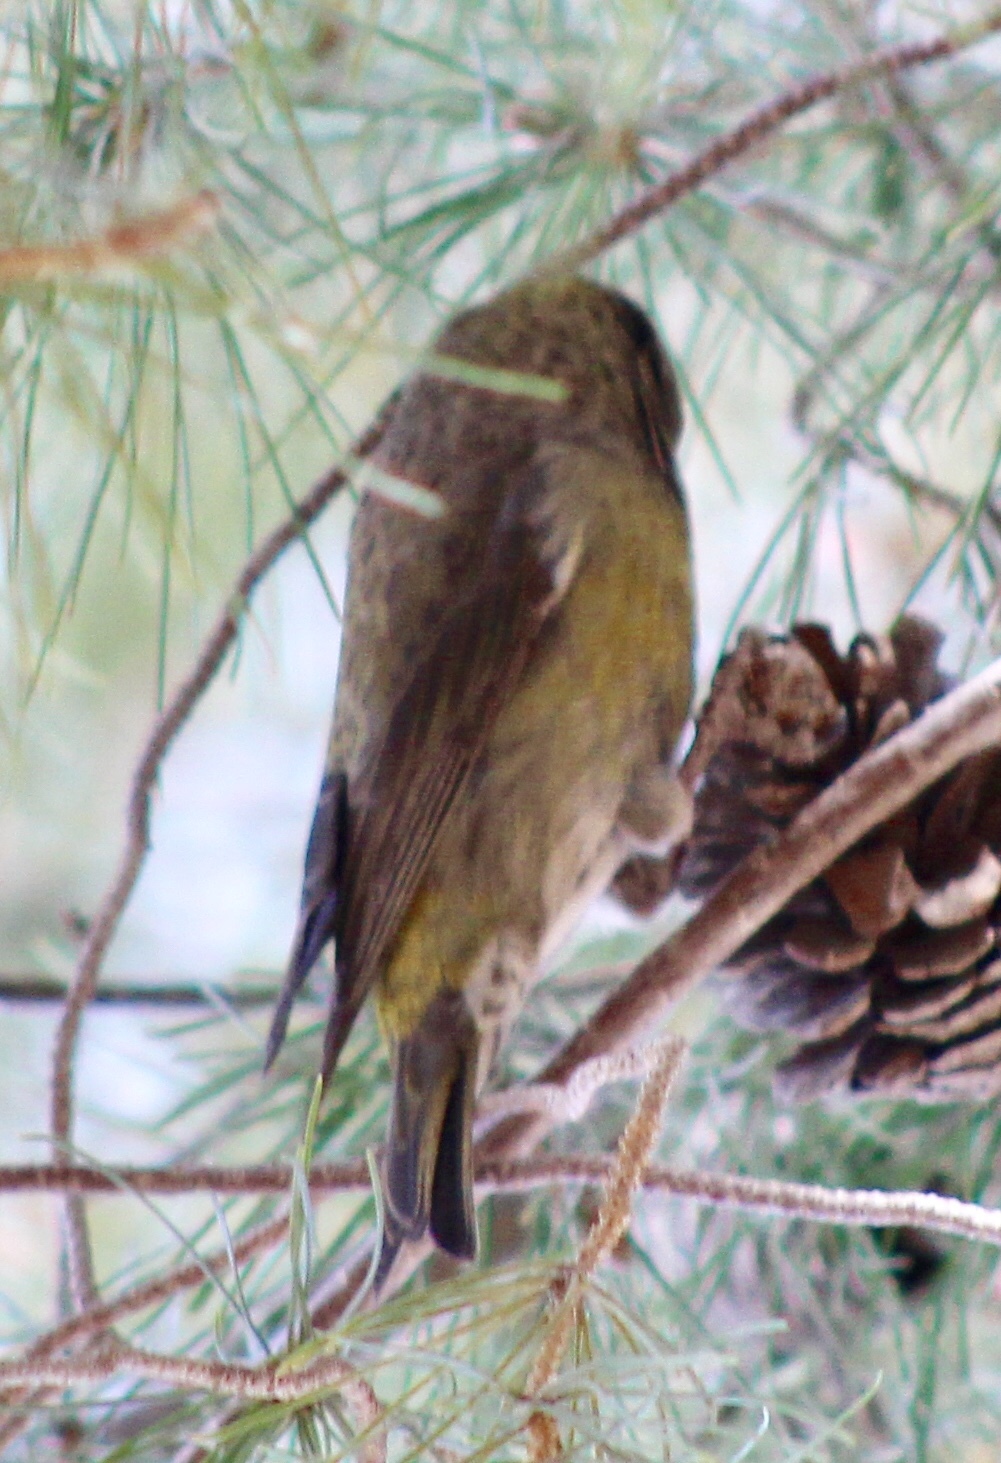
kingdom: Animalia
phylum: Chordata
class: Aves
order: Passeriformes
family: Fringillidae
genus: Loxia
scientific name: Loxia curvirostra
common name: Red crossbill
